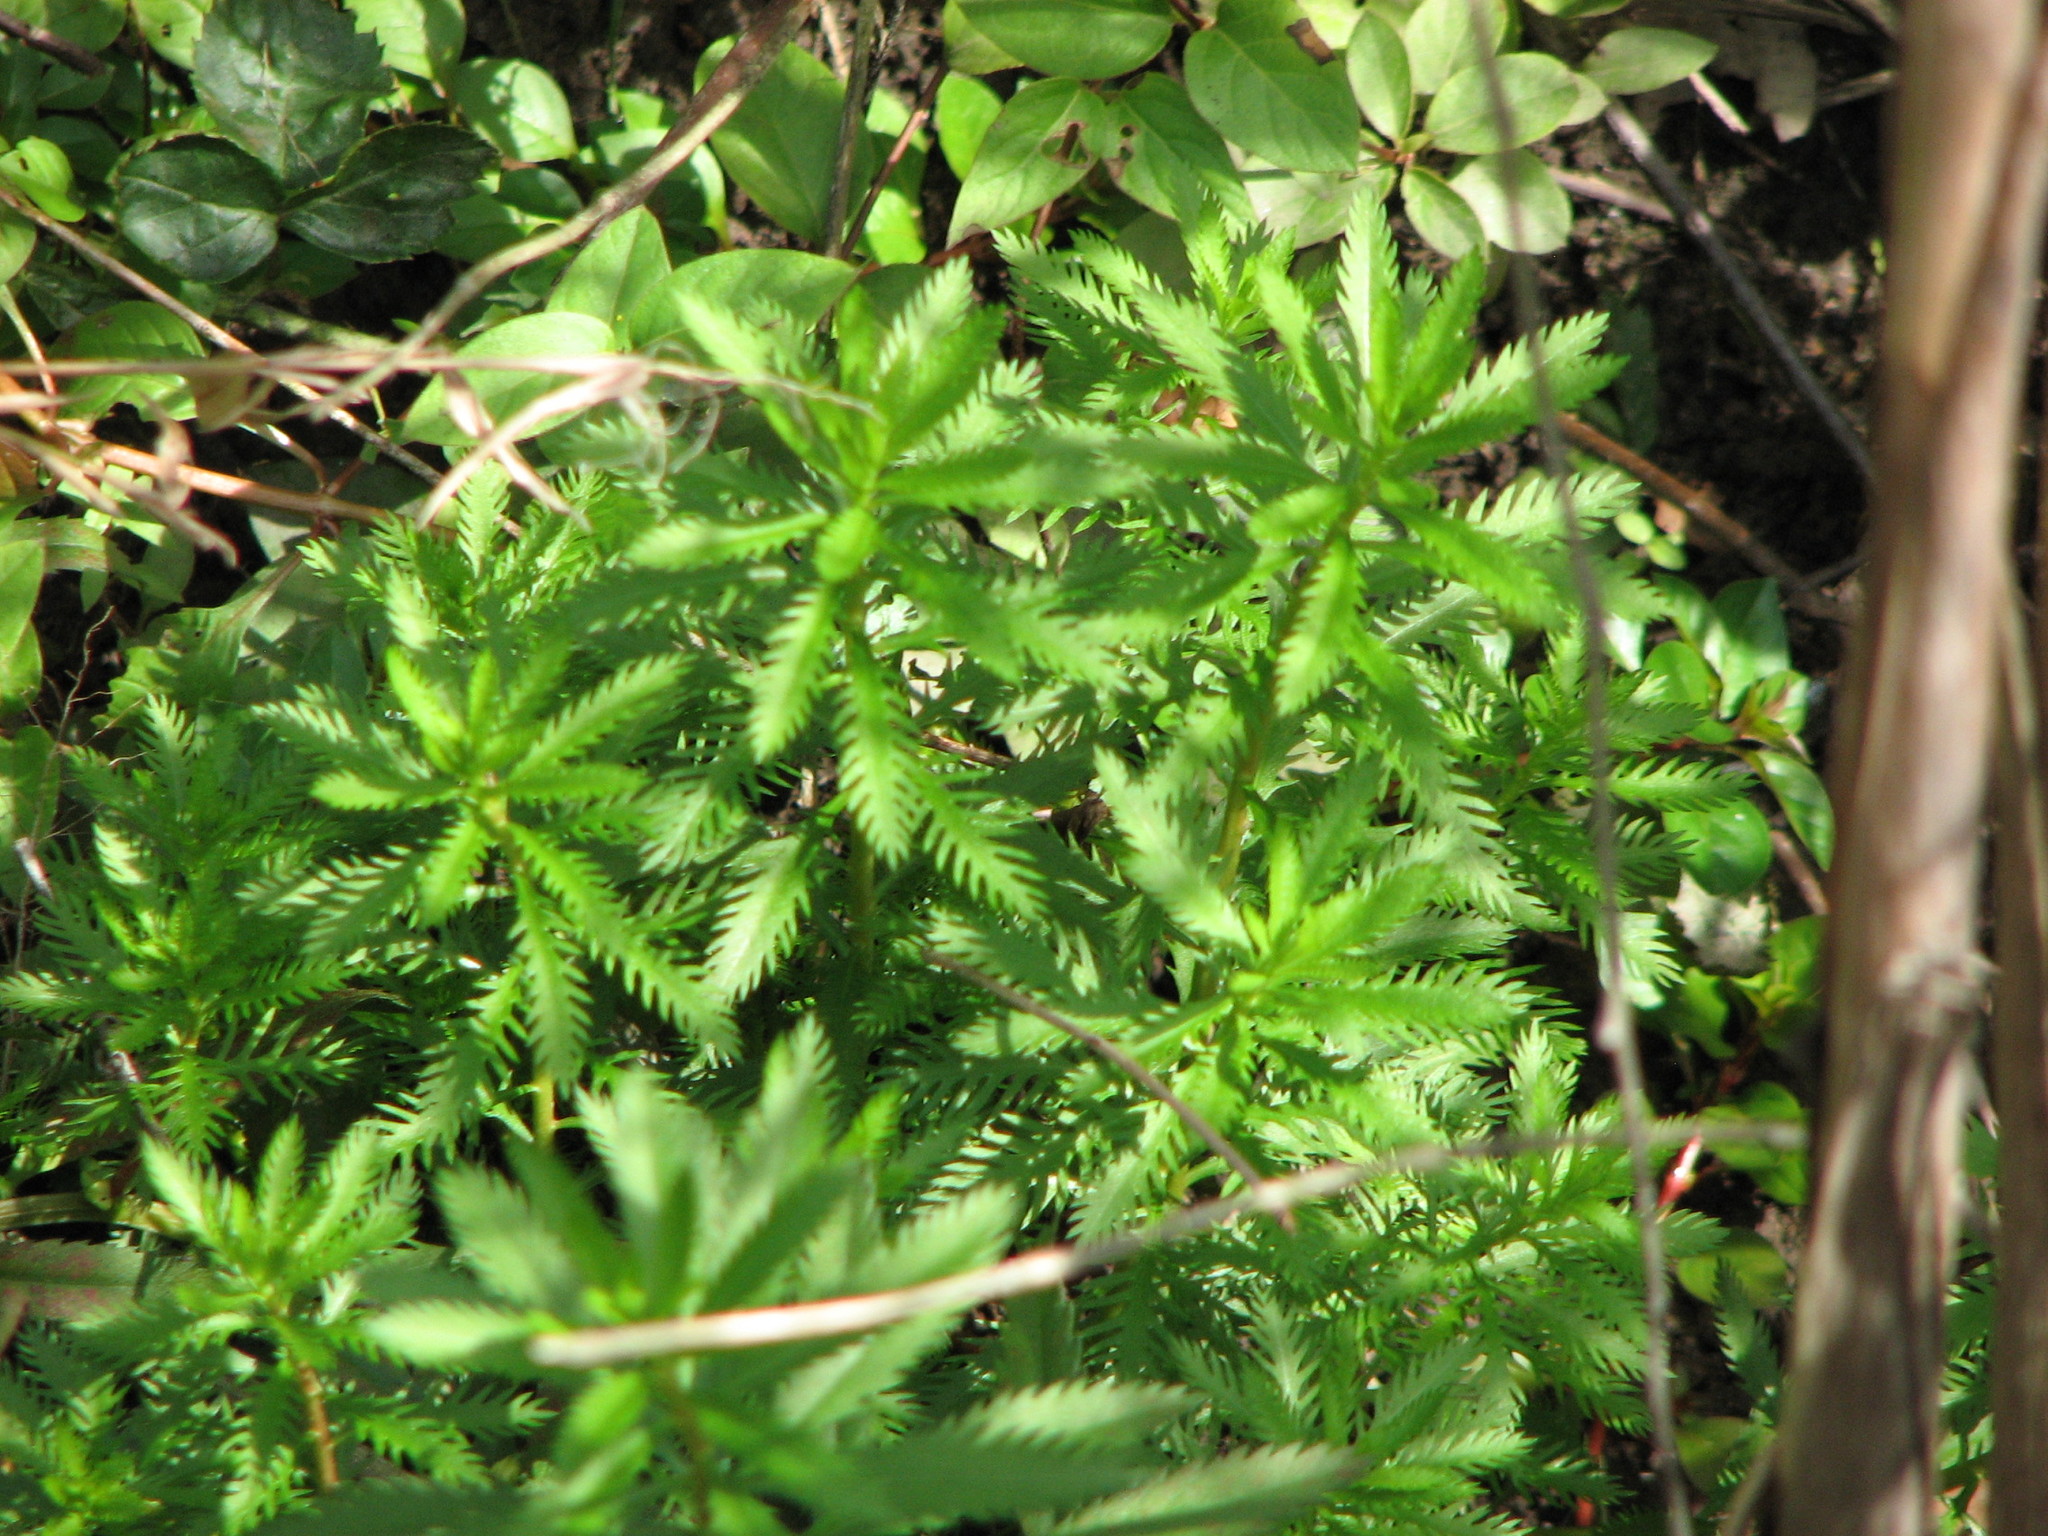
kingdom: Plantae
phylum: Tracheophyta
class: Magnoliopsida
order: Saxifragales
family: Haloragaceae
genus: Proserpinaca
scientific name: Proserpinaca palustris
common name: Marsh mermaidweed
